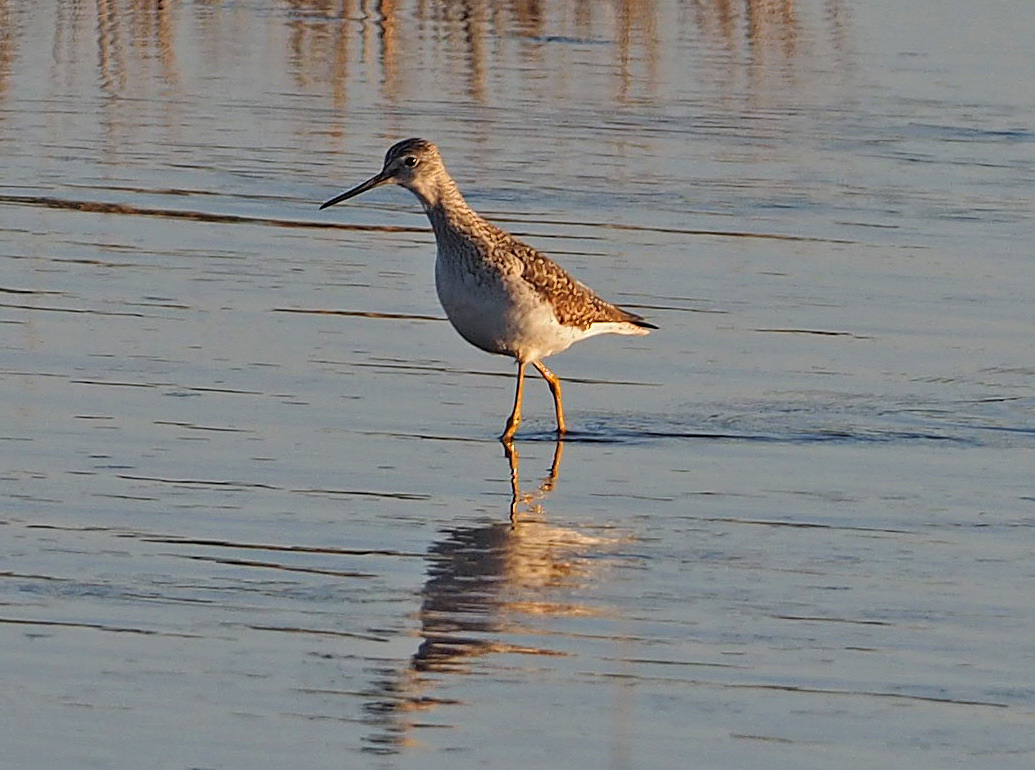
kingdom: Animalia
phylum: Chordata
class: Aves
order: Charadriiformes
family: Scolopacidae
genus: Tringa
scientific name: Tringa melanoleuca
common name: Greater yellowlegs
